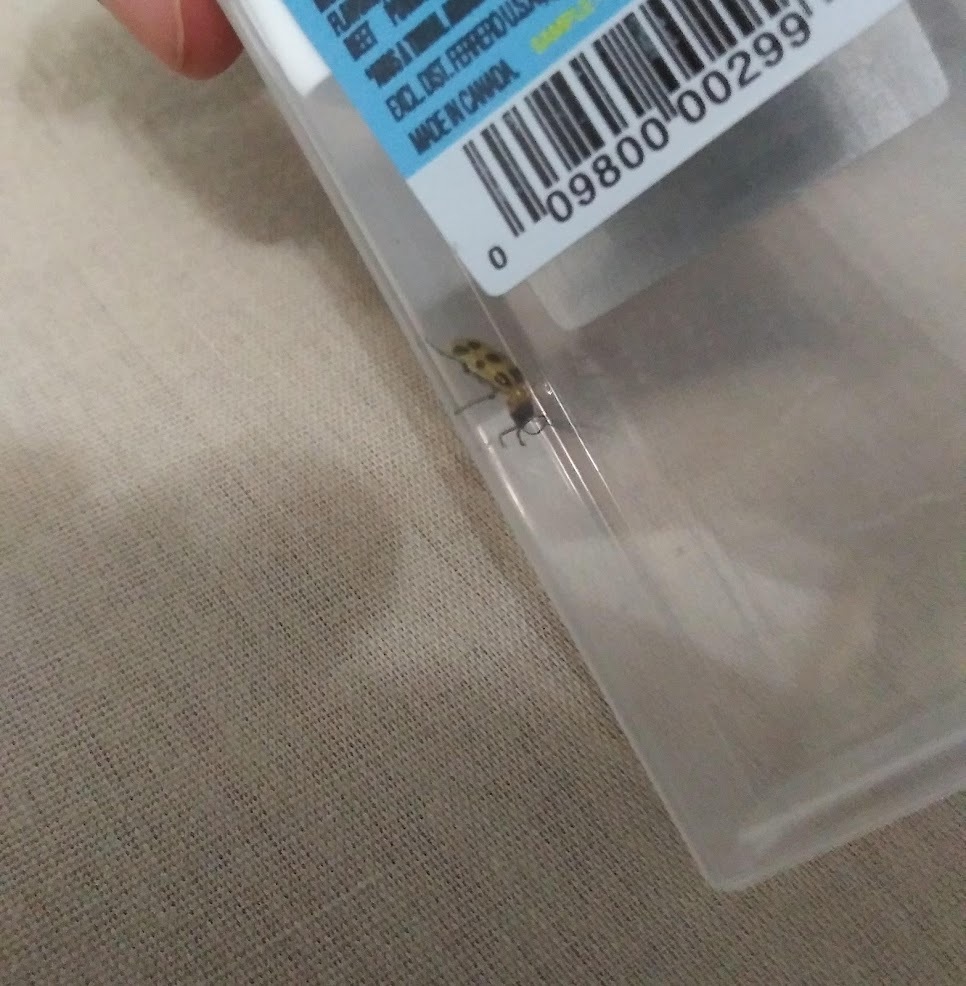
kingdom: Animalia
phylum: Arthropoda
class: Insecta
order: Coleoptera
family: Chrysomelidae
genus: Diabrotica
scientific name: Diabrotica undecimpunctata
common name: Spotted cucumber beetle
